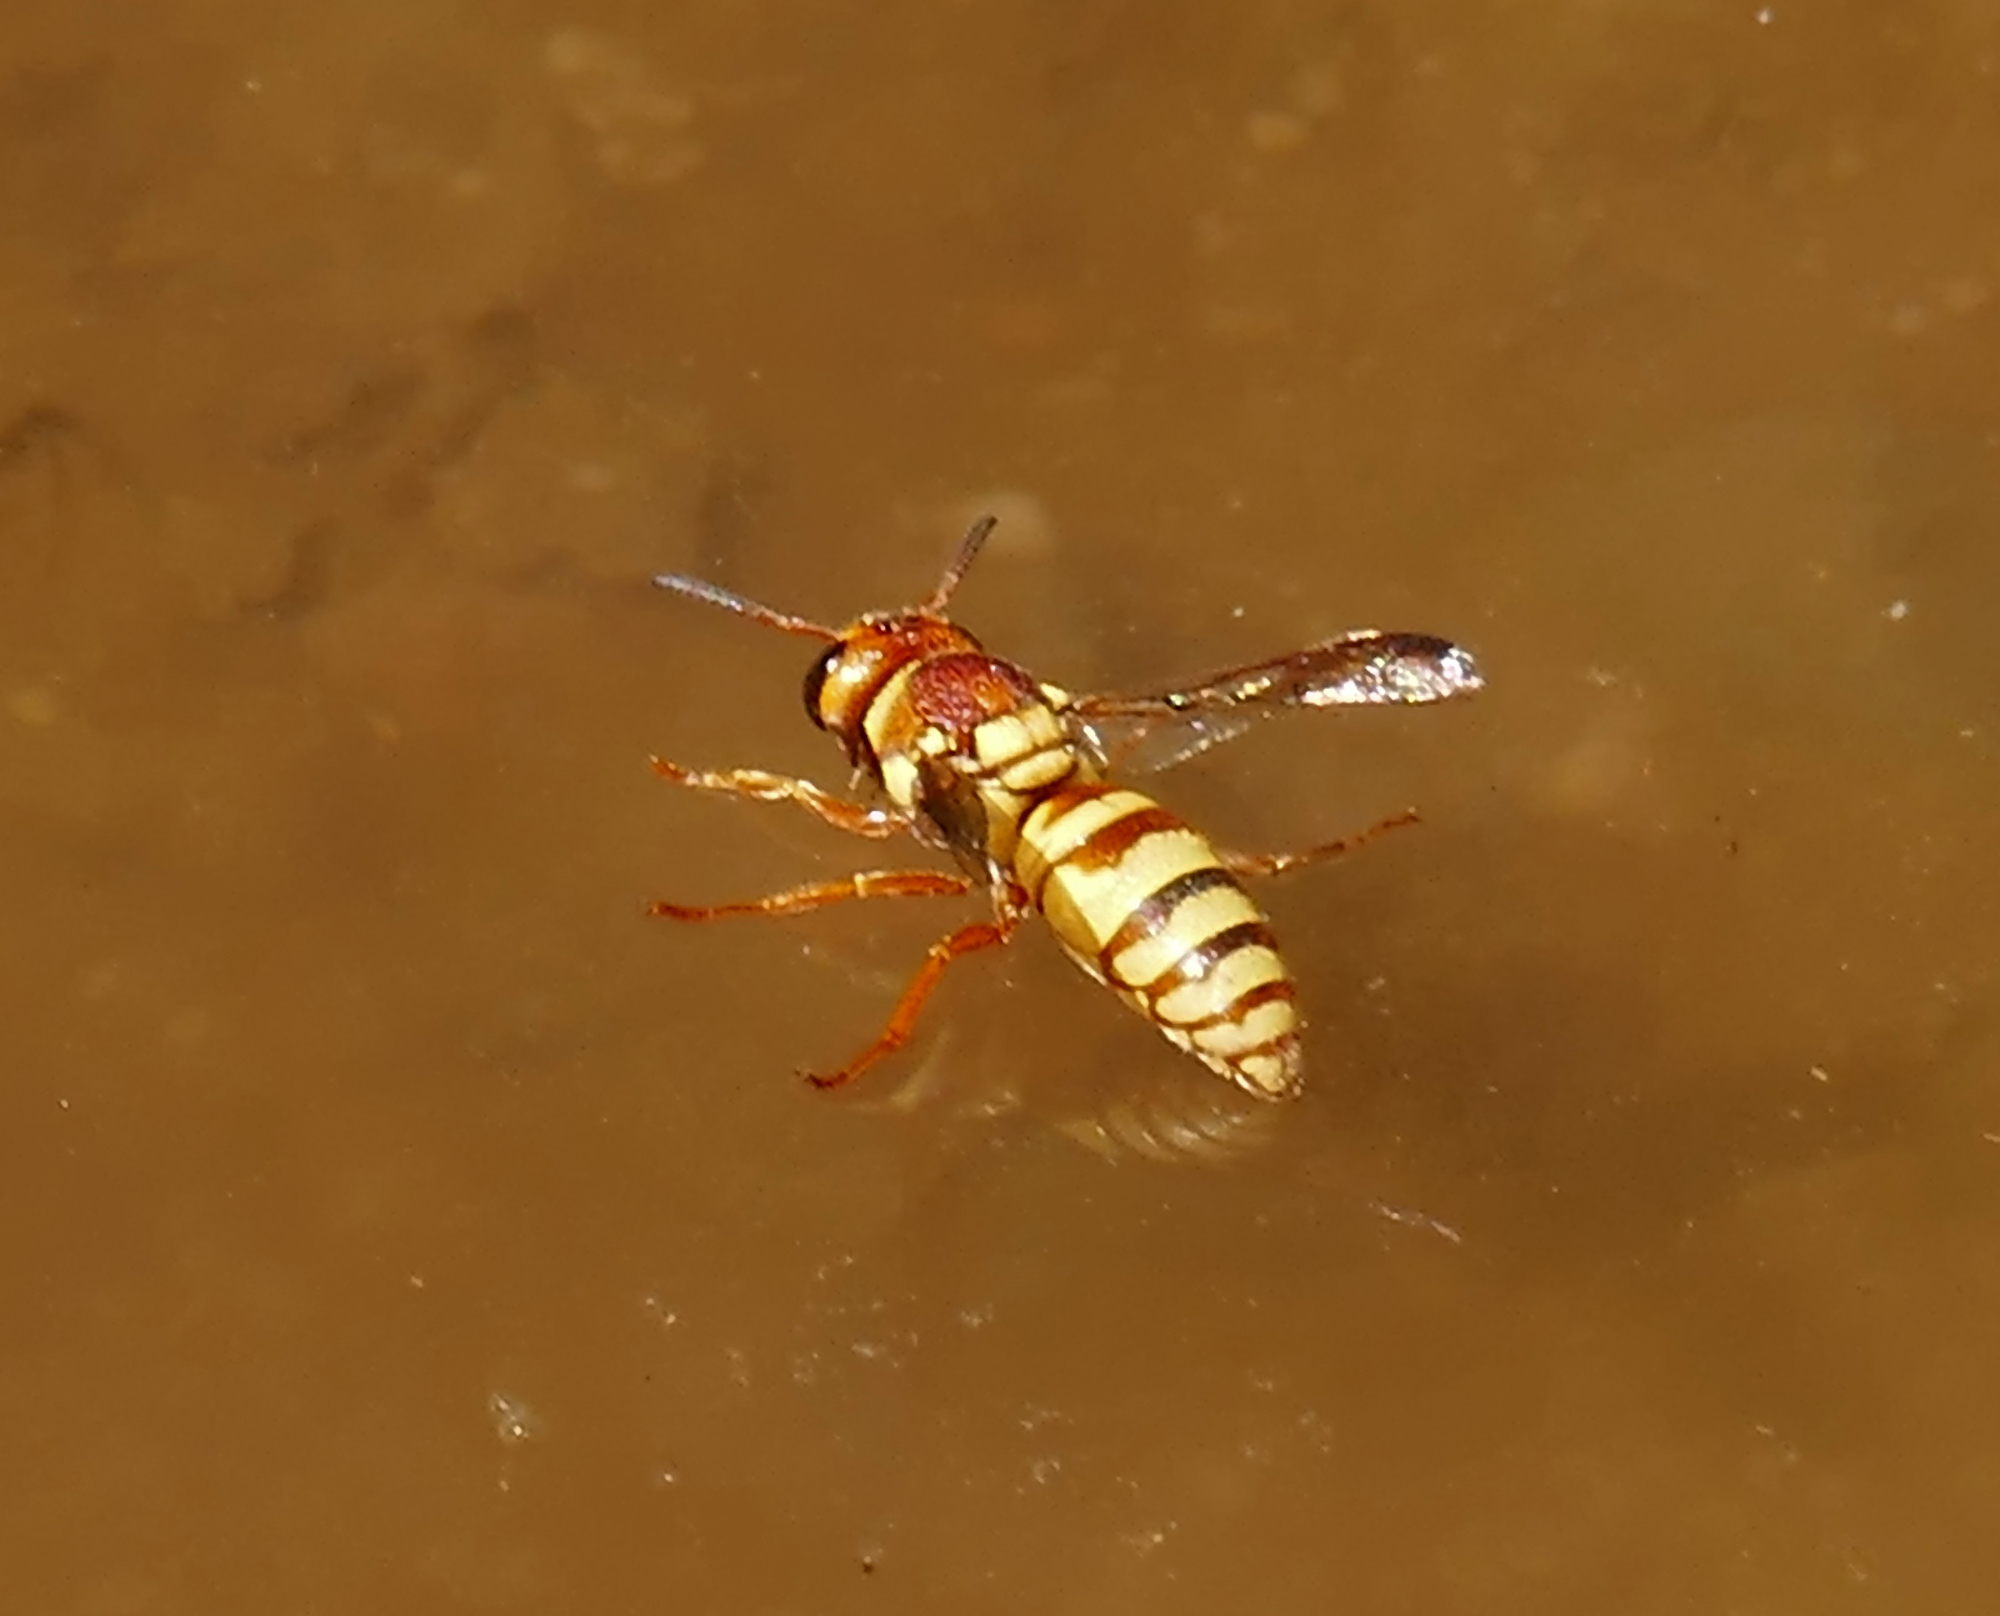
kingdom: Animalia
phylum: Arthropoda
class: Insecta
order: Hymenoptera
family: Eumenidae
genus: Euodynerus
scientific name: Euodynerus annulatus
